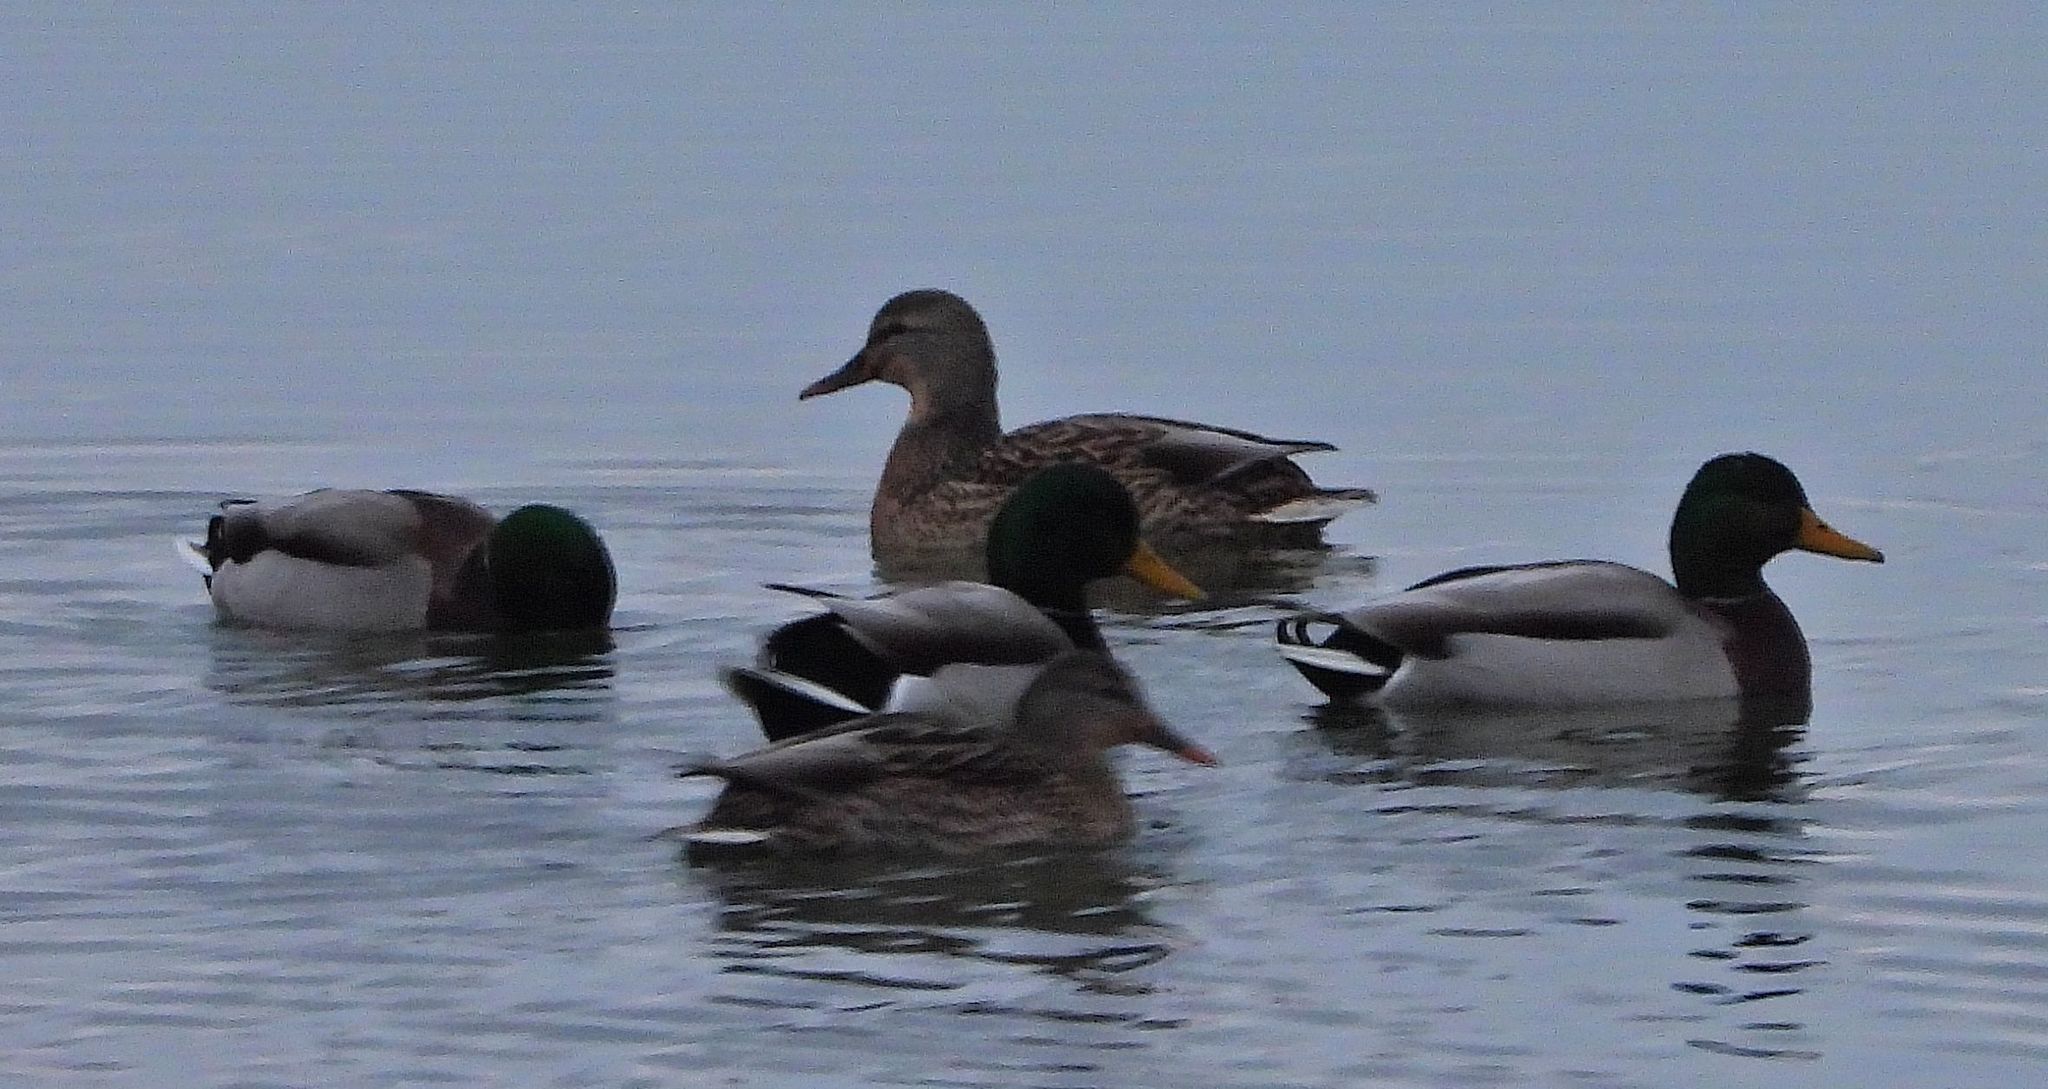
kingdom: Animalia
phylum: Chordata
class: Aves
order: Anseriformes
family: Anatidae
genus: Anas
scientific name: Anas platyrhynchos
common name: Mallard
